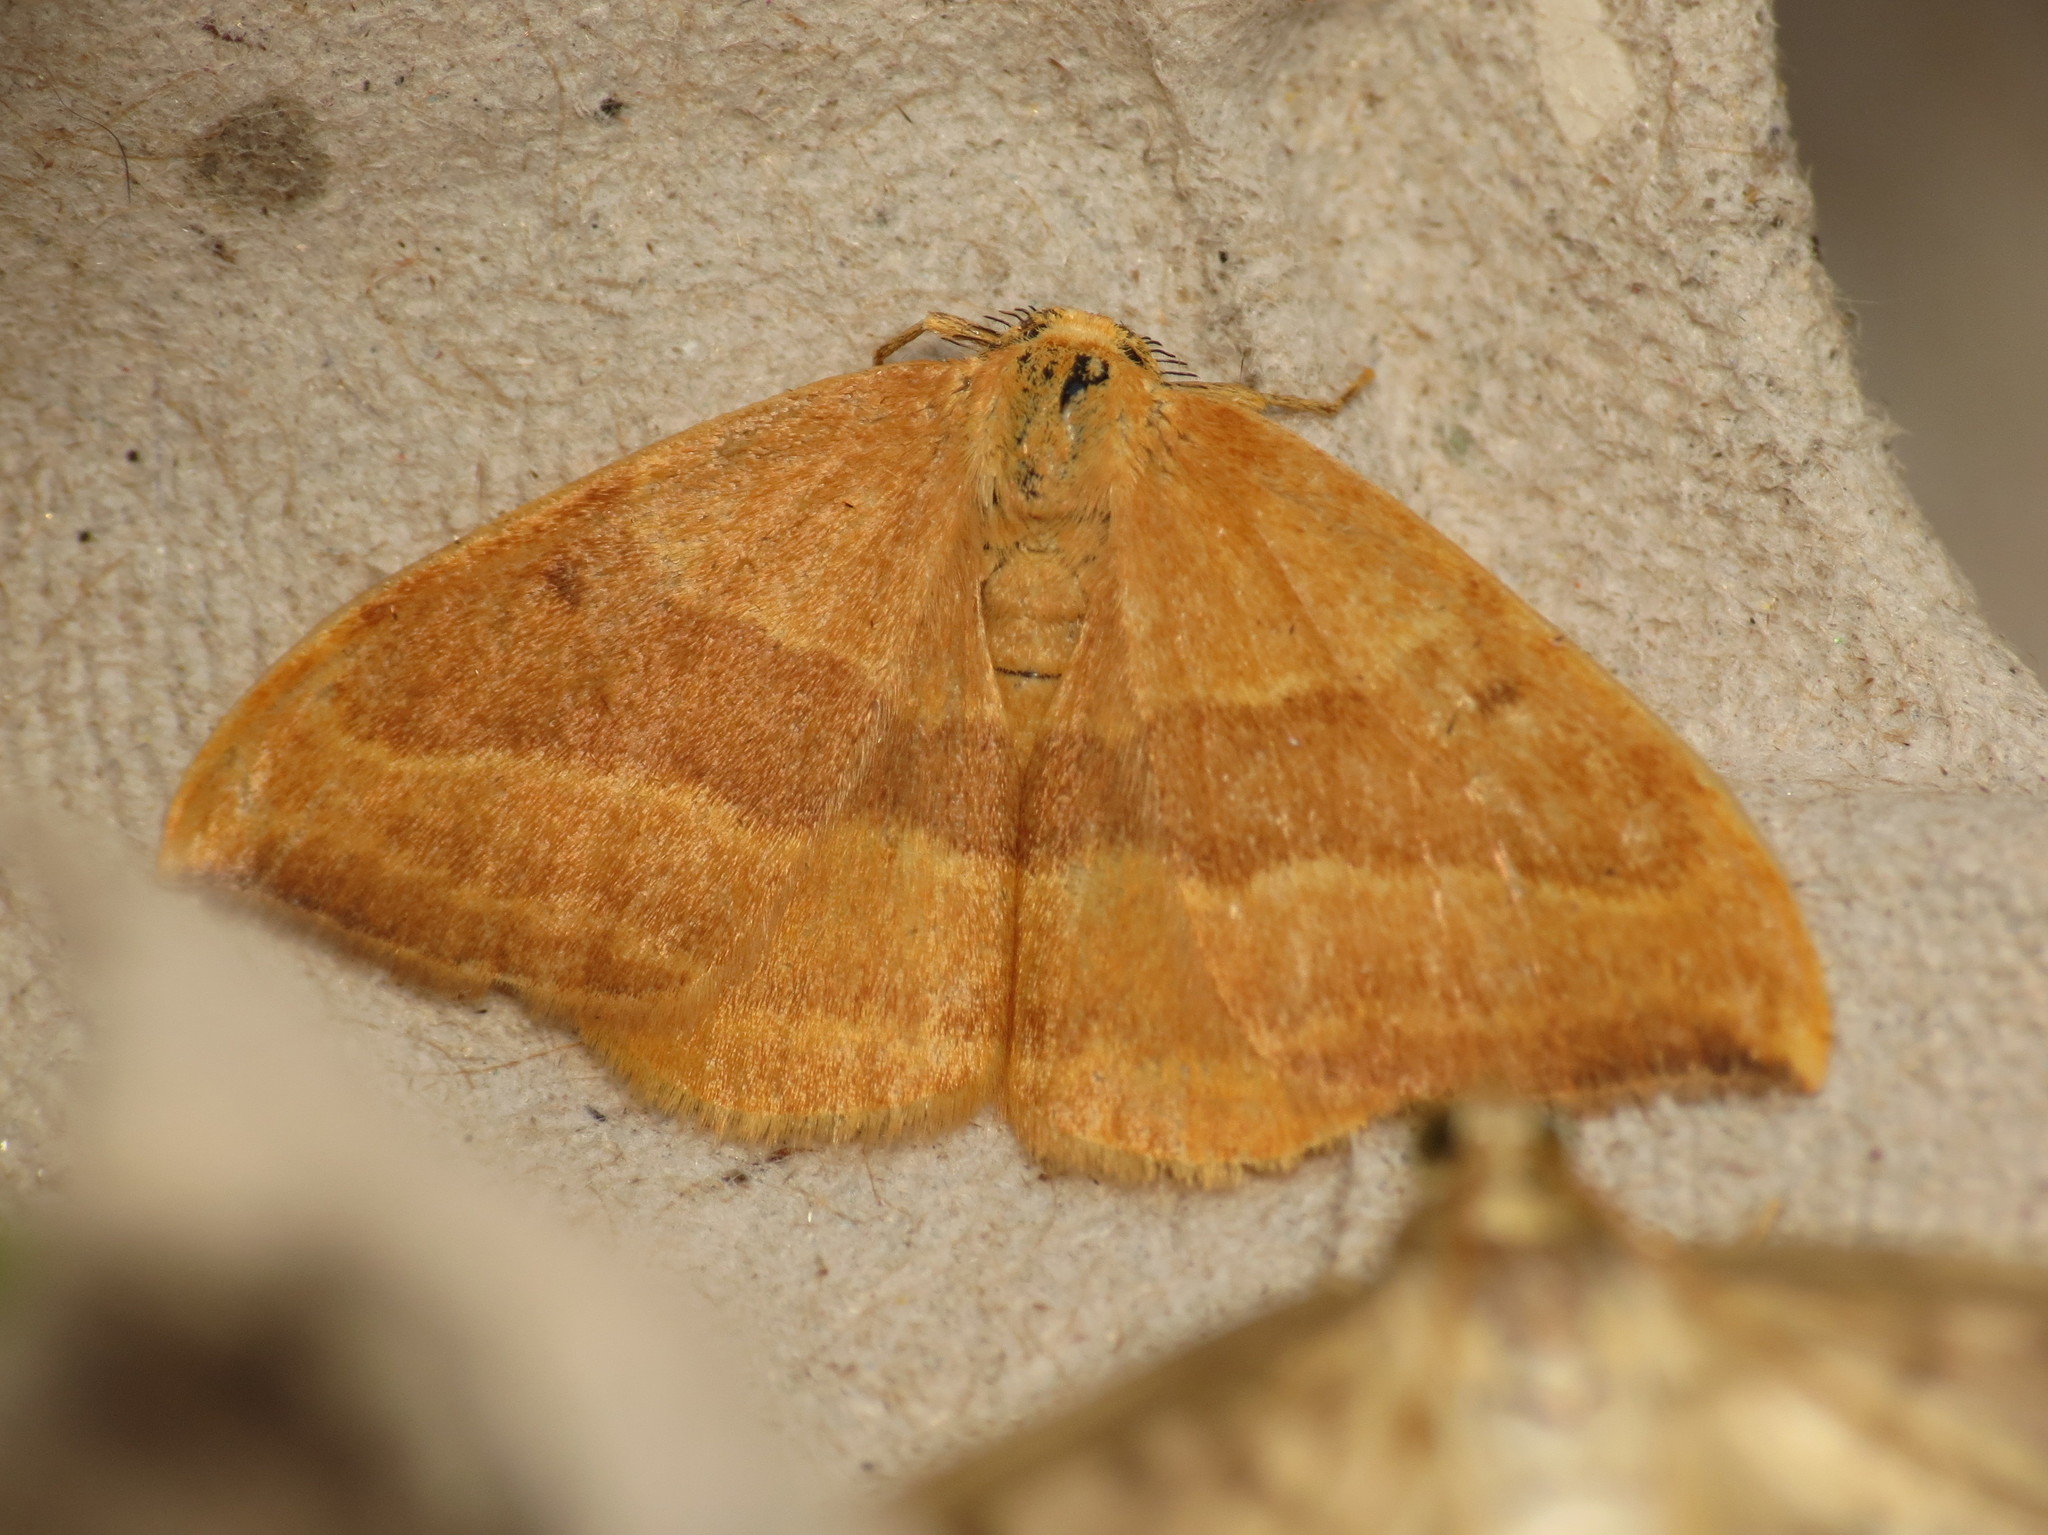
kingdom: Animalia
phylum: Arthropoda
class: Insecta
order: Lepidoptera
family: Drepanidae
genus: Watsonalla
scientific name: Watsonalla cultraria
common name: Barred hook-tip
